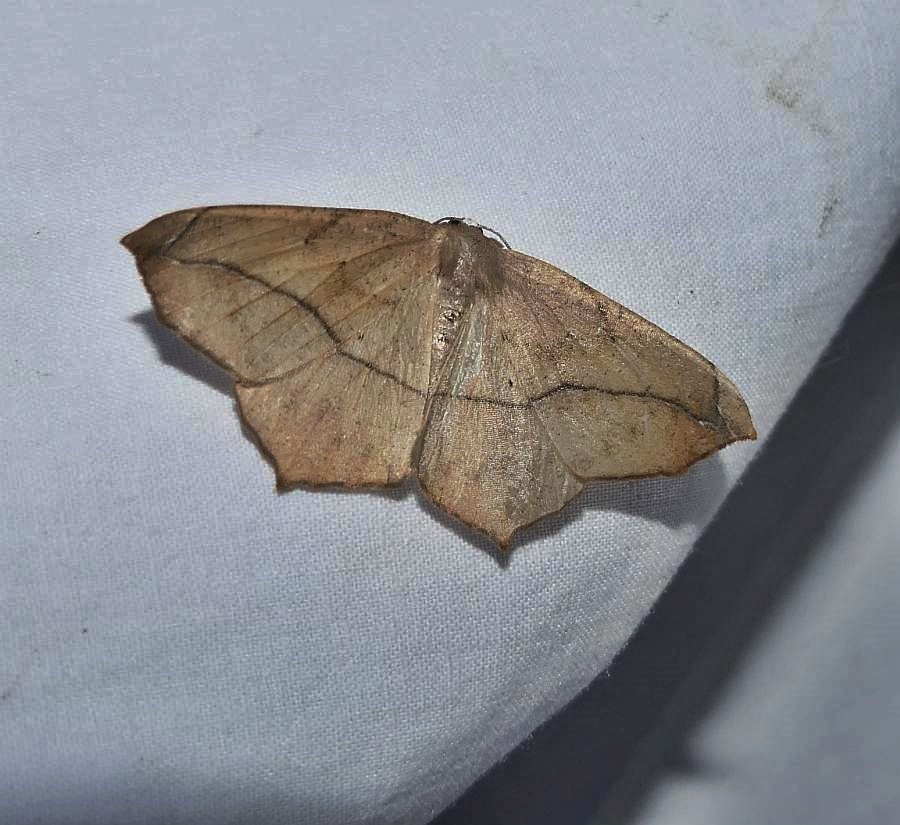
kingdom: Animalia
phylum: Arthropoda
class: Insecta
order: Lepidoptera
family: Geometridae
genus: Prochoerodes
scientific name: Prochoerodes lineola
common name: Large maple spanworm
